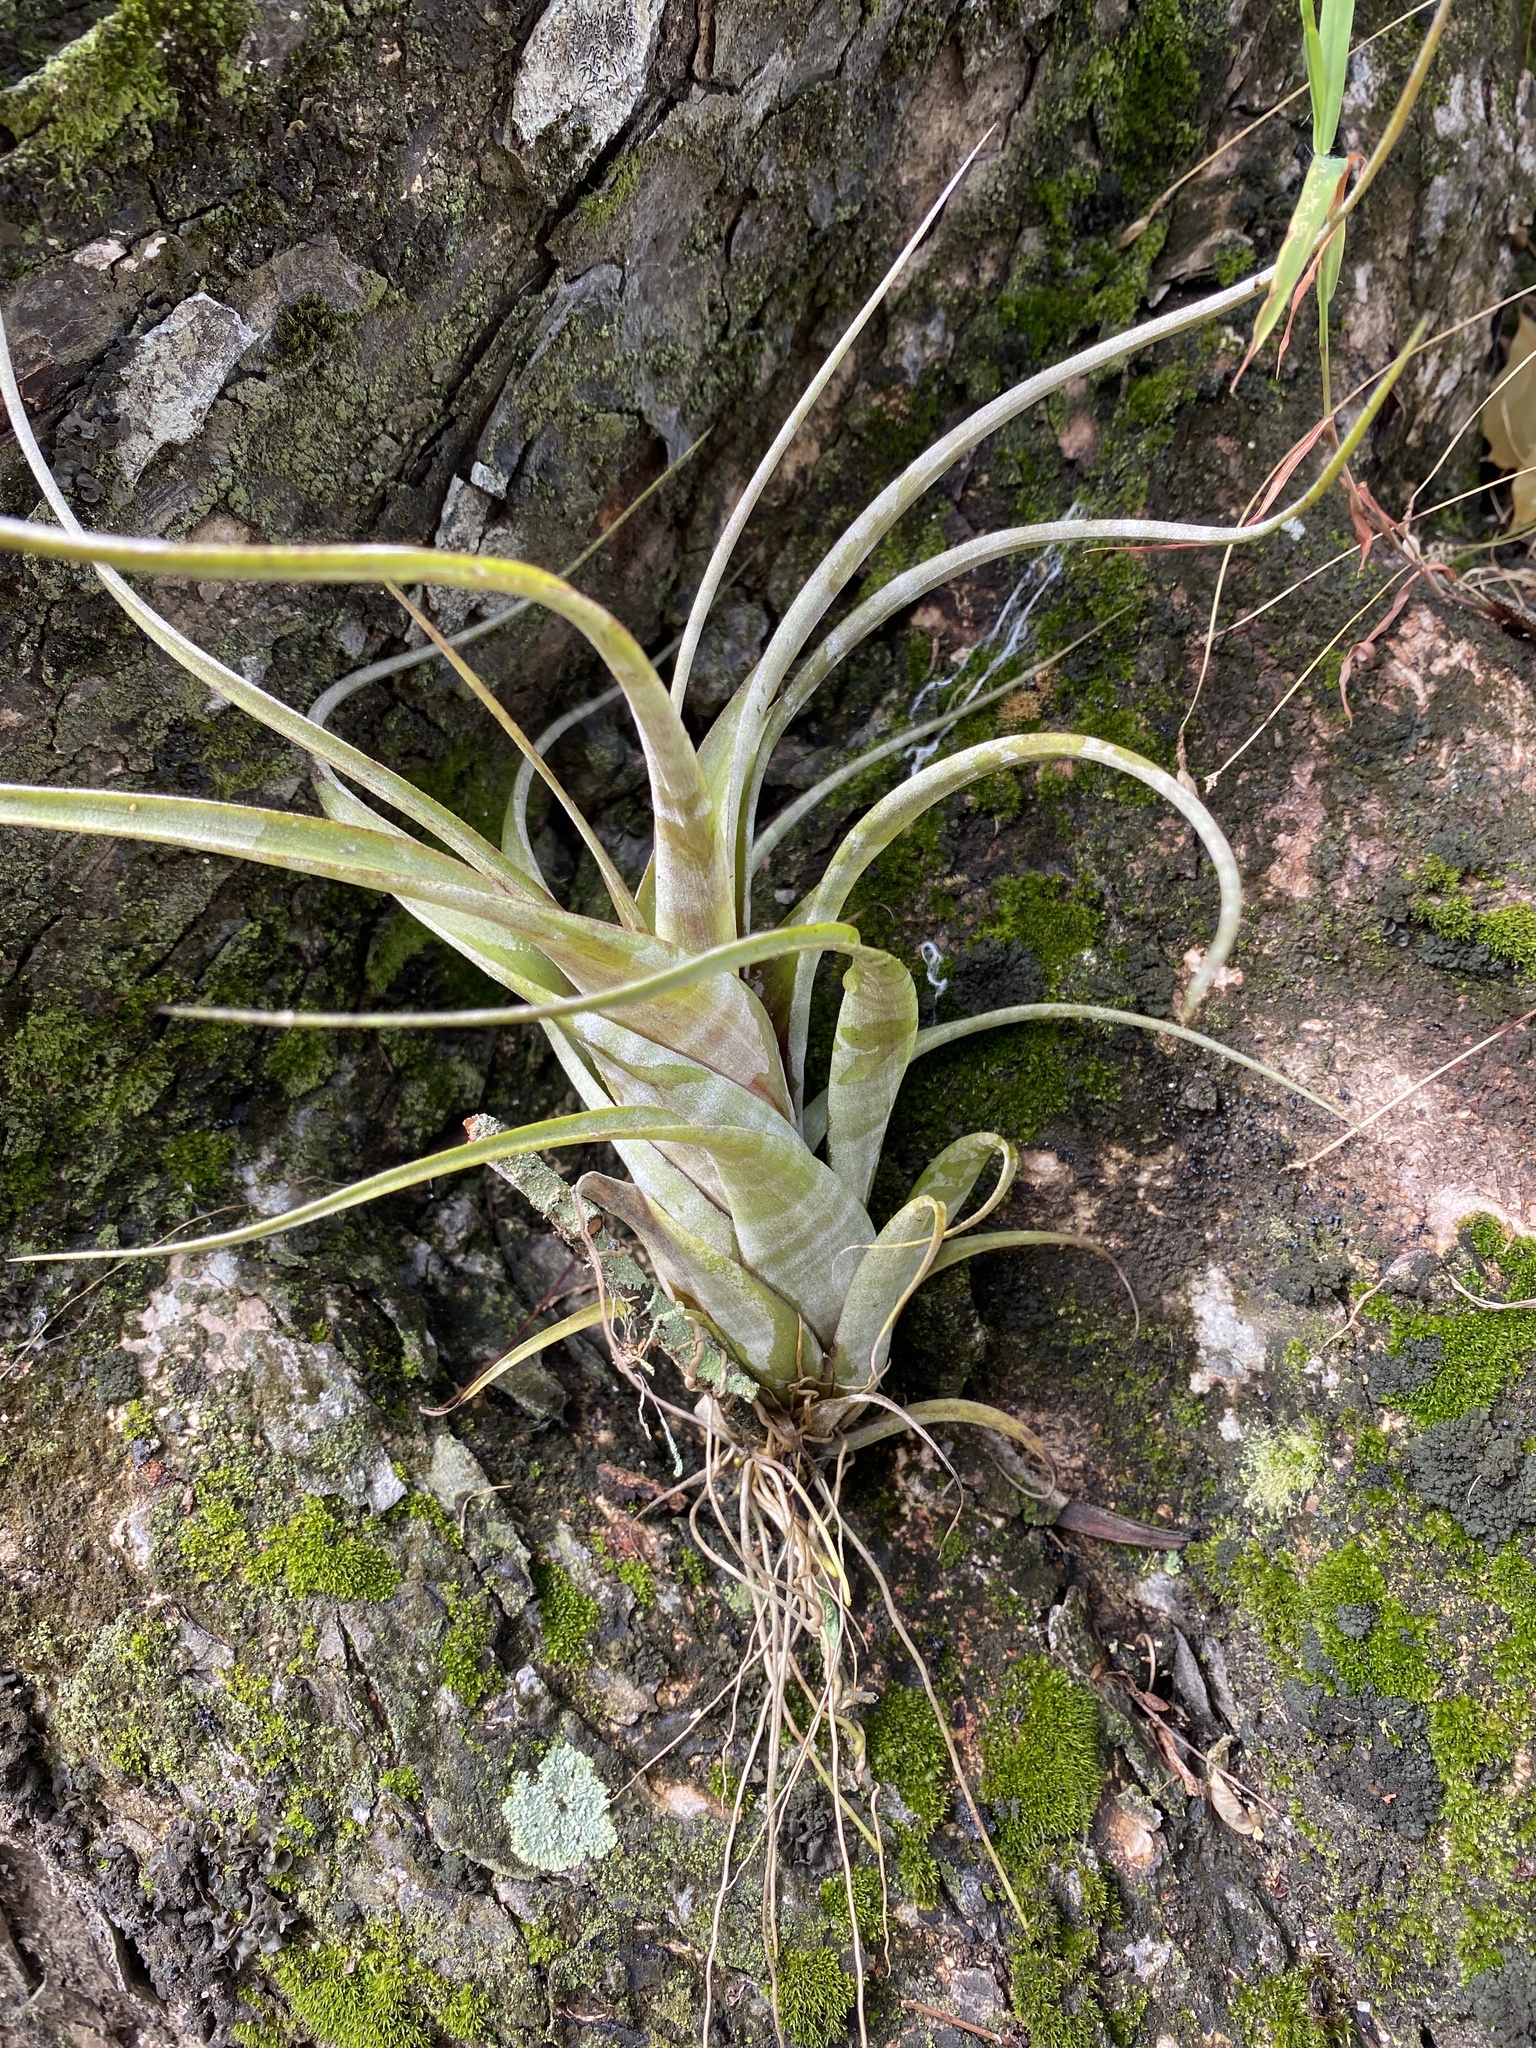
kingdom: Plantae
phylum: Tracheophyta
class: Liliopsida
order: Poales
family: Bromeliaceae
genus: Tillandsia
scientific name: Tillandsia flexuosa
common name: Banded airplant
